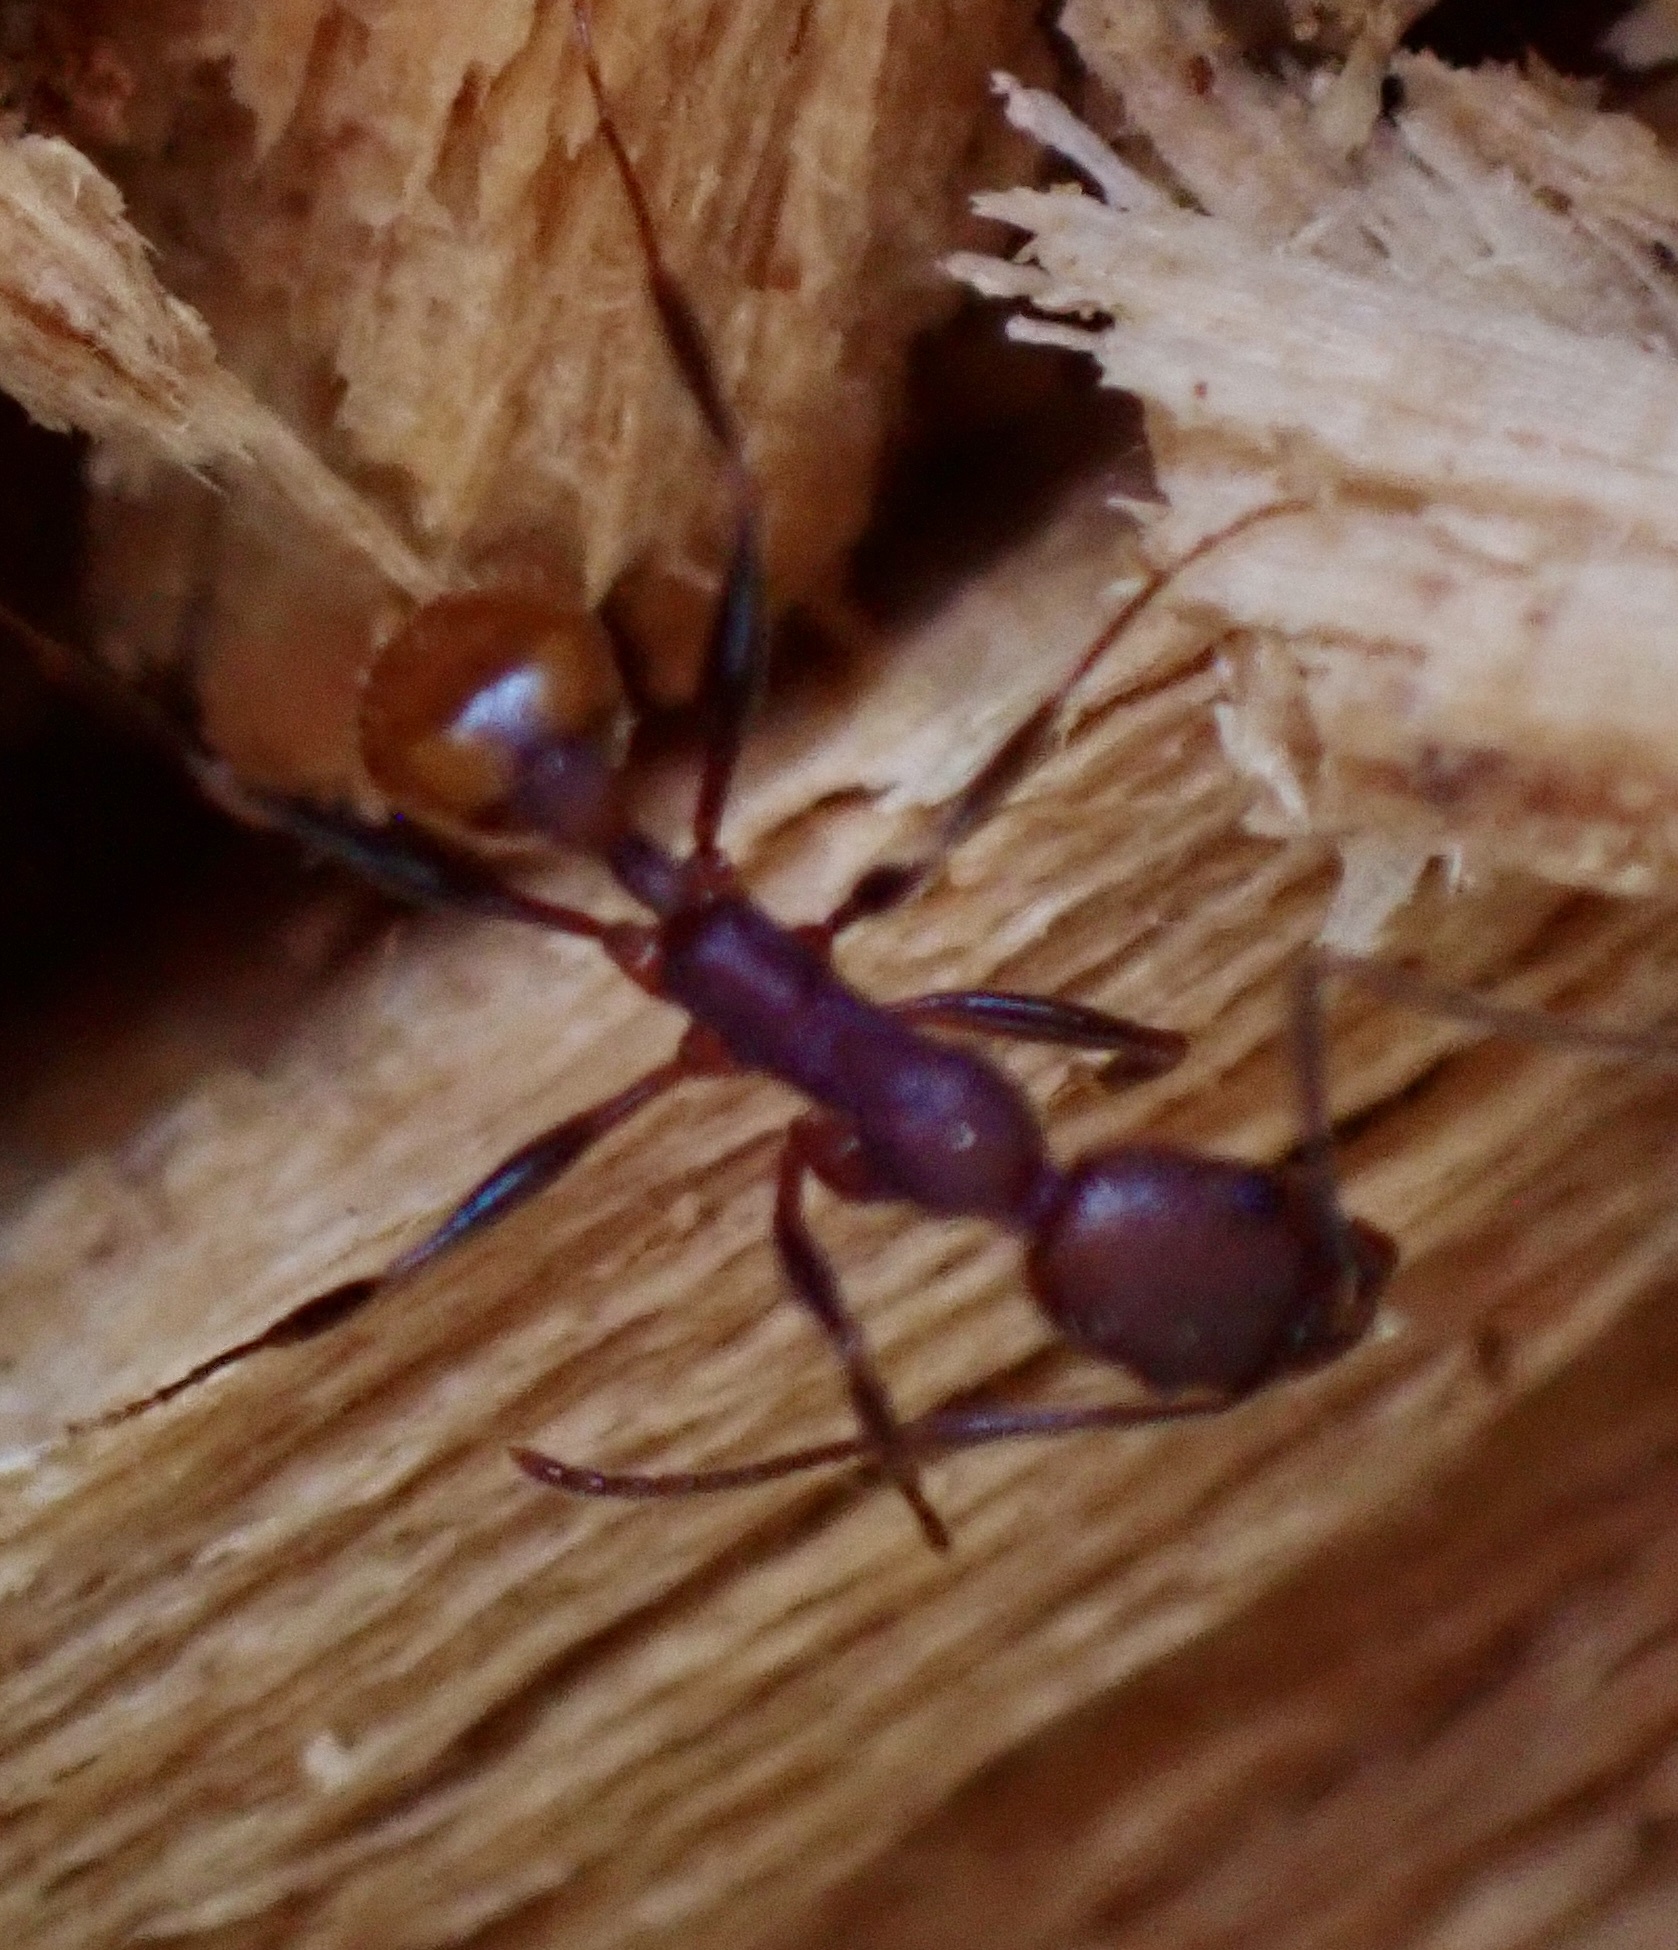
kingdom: Animalia
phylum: Arthropoda
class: Insecta
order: Hymenoptera
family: Formicidae
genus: Aphaenogaster
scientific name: Aphaenogaster lamellidens
